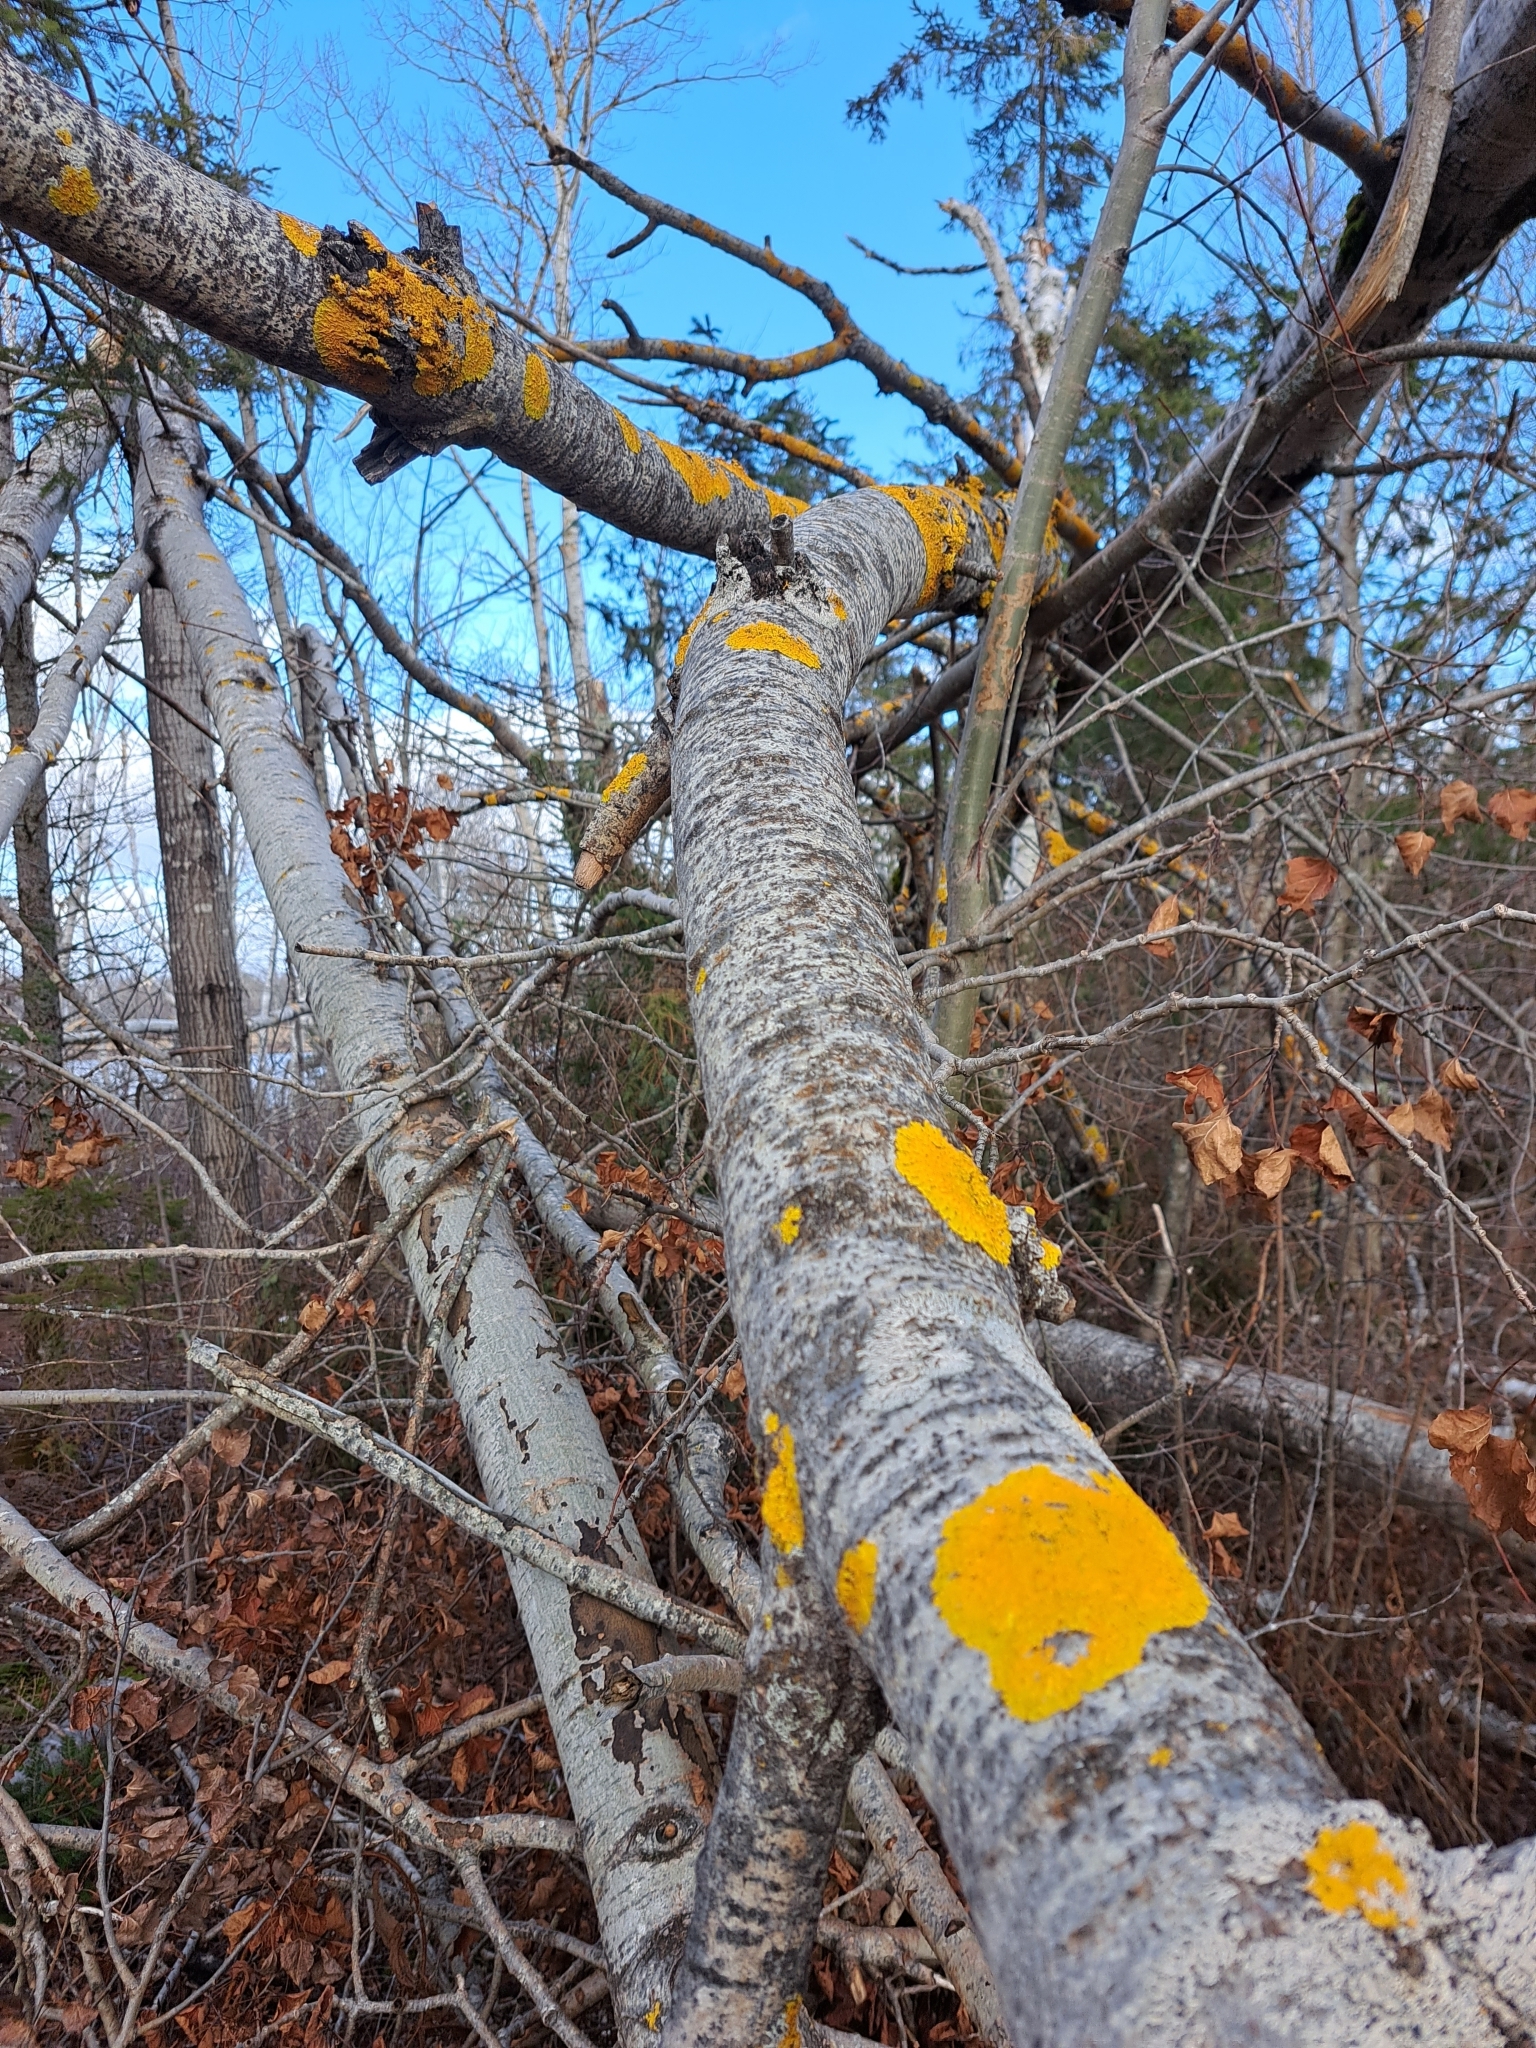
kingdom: Fungi
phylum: Ascomycota
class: Lecanoromycetes
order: Teloschistales
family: Teloschistaceae
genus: Xanthoria
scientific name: Xanthoria parietina
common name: Common orange lichen
